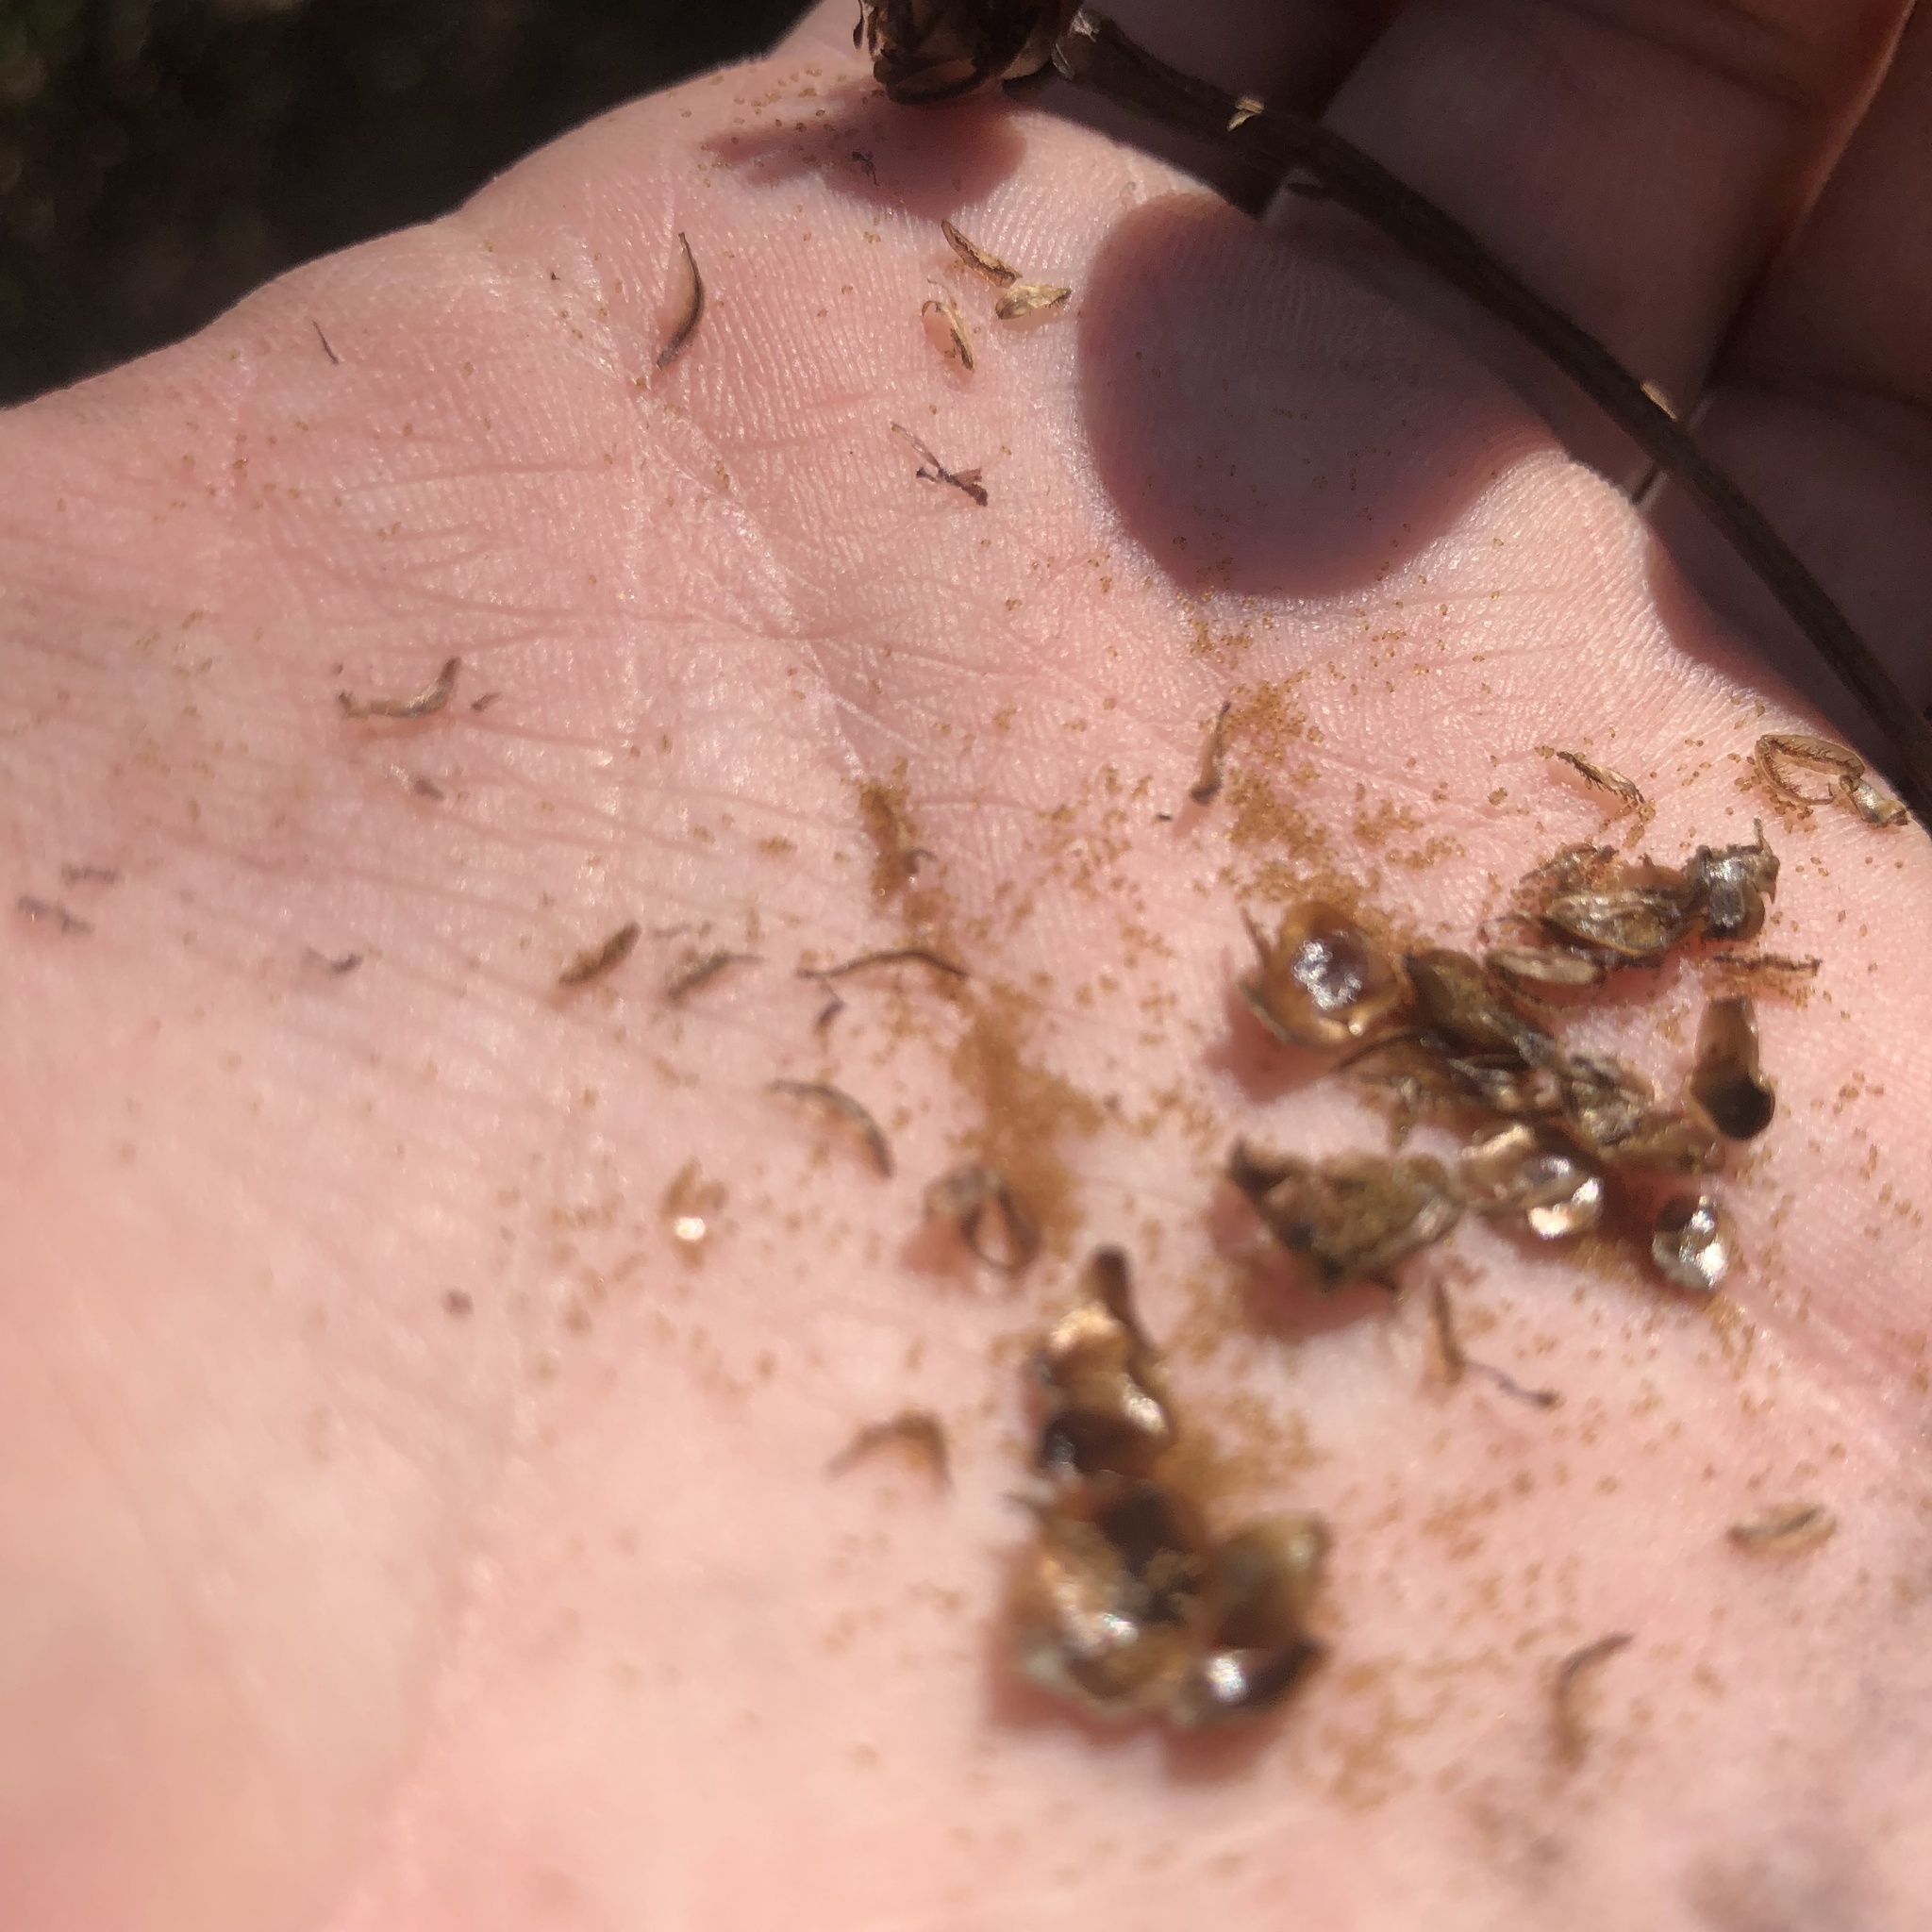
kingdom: Plantae
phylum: Tracheophyta
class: Liliopsida
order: Poales
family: Xyridaceae
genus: Xyris
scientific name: Xyris difformis
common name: Bog yellow-eyed-grass
